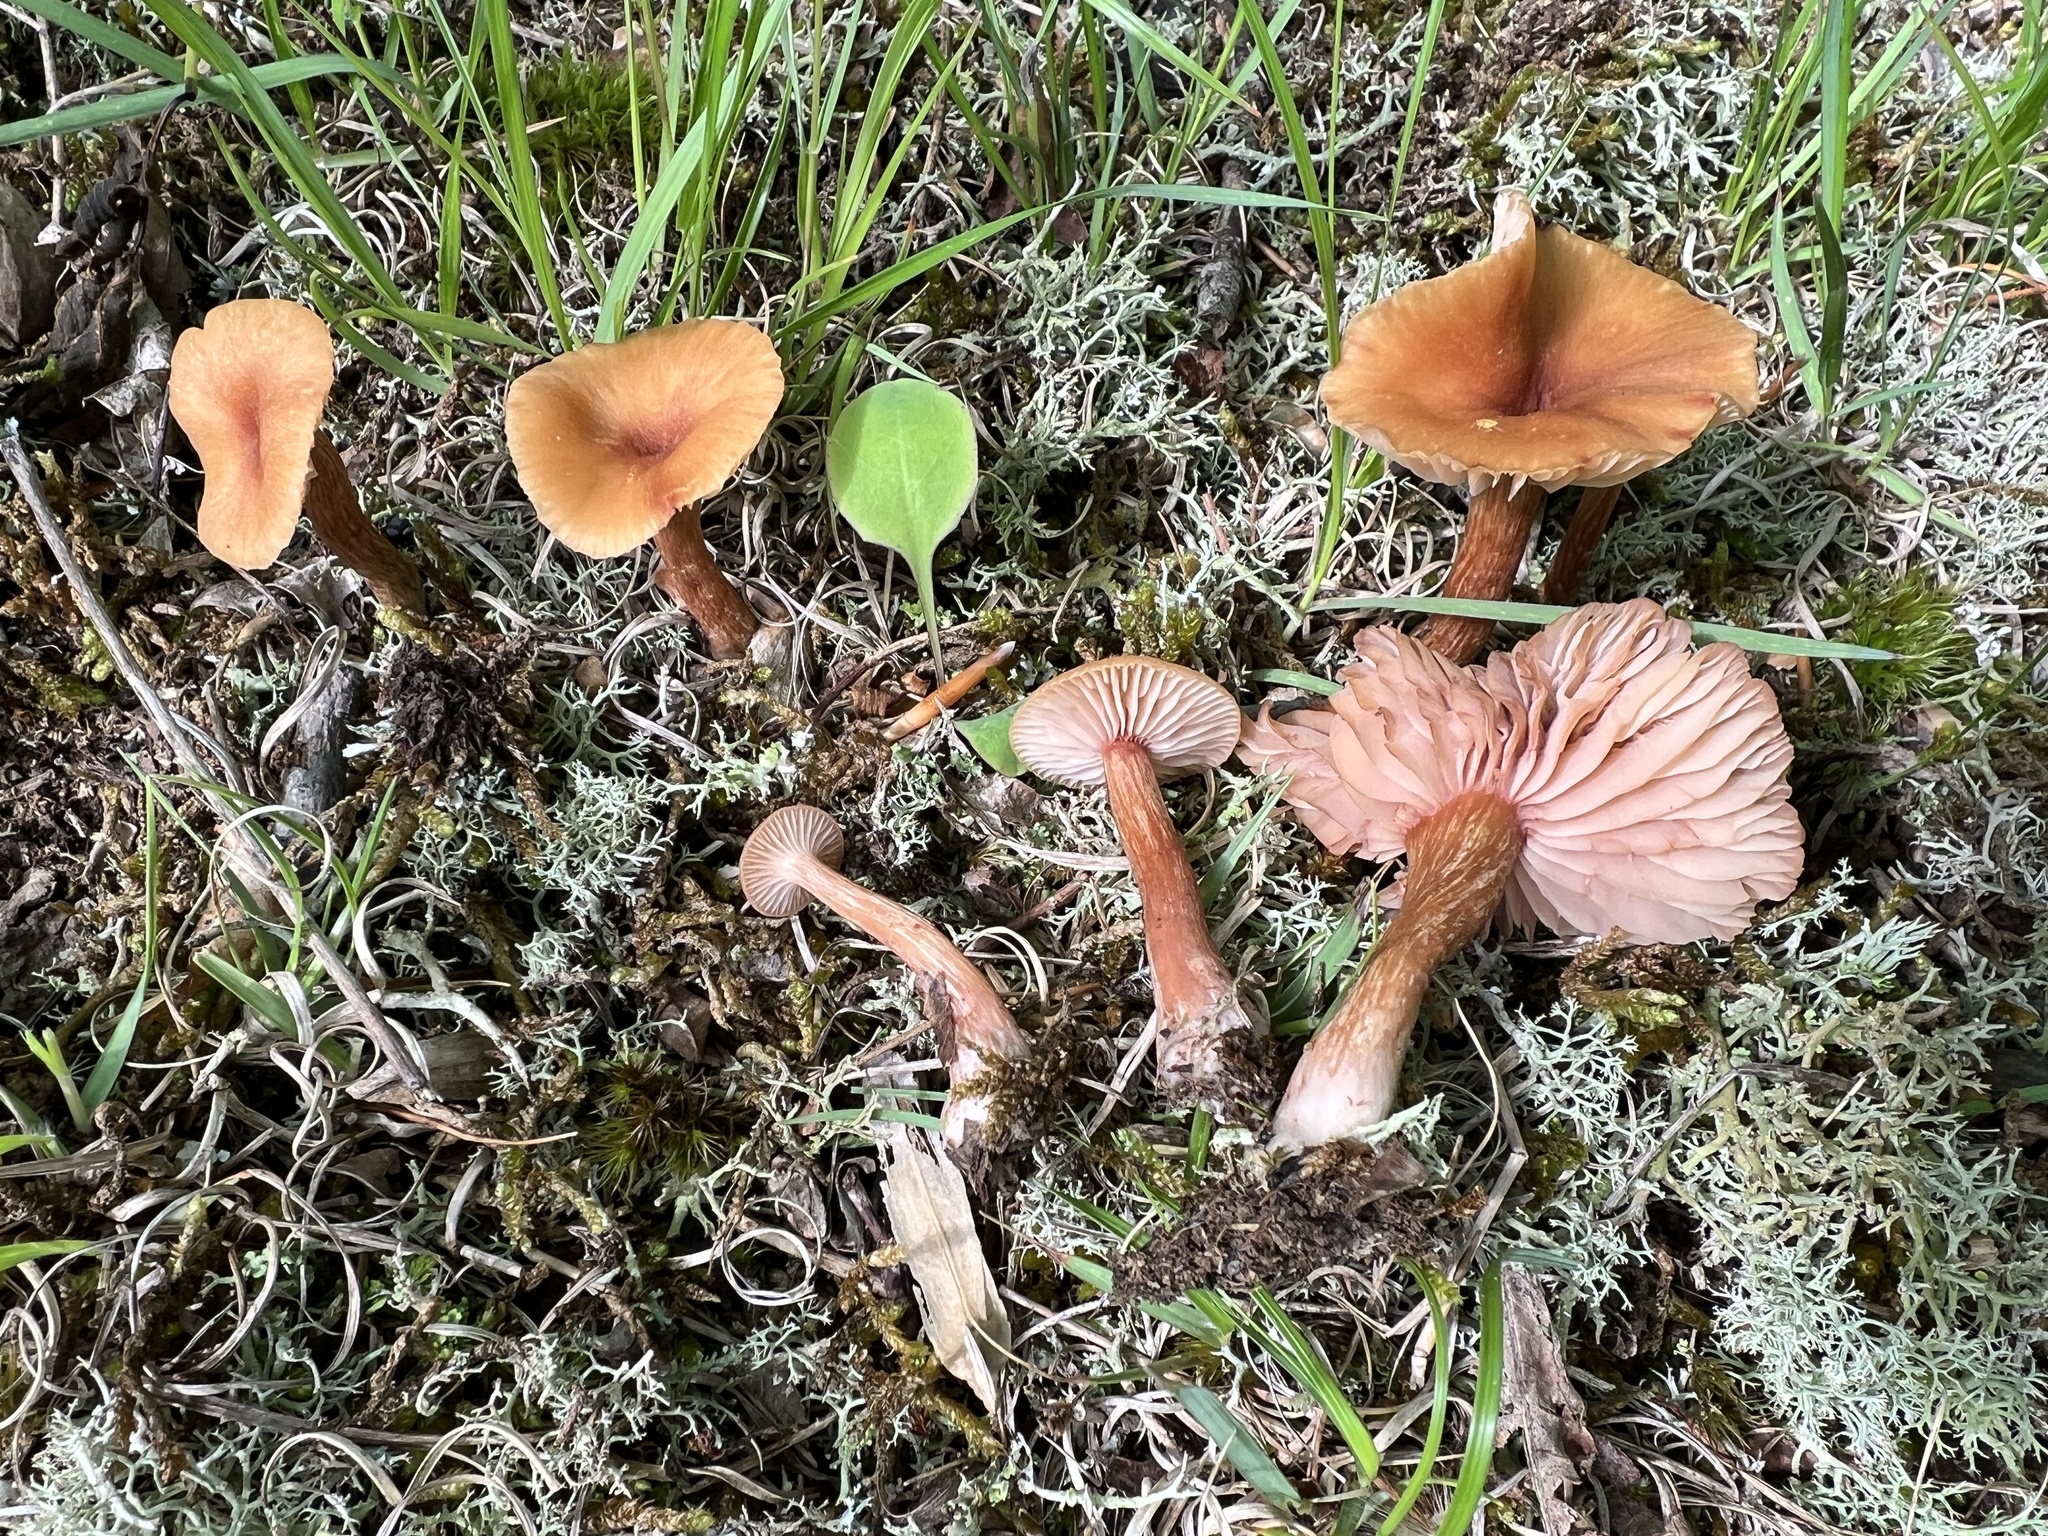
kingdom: Fungi
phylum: Basidiomycota
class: Agaricomycetes
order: Agaricales
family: Hydnangiaceae
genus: Laccaria
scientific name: Laccaria laccata
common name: Deceiver
